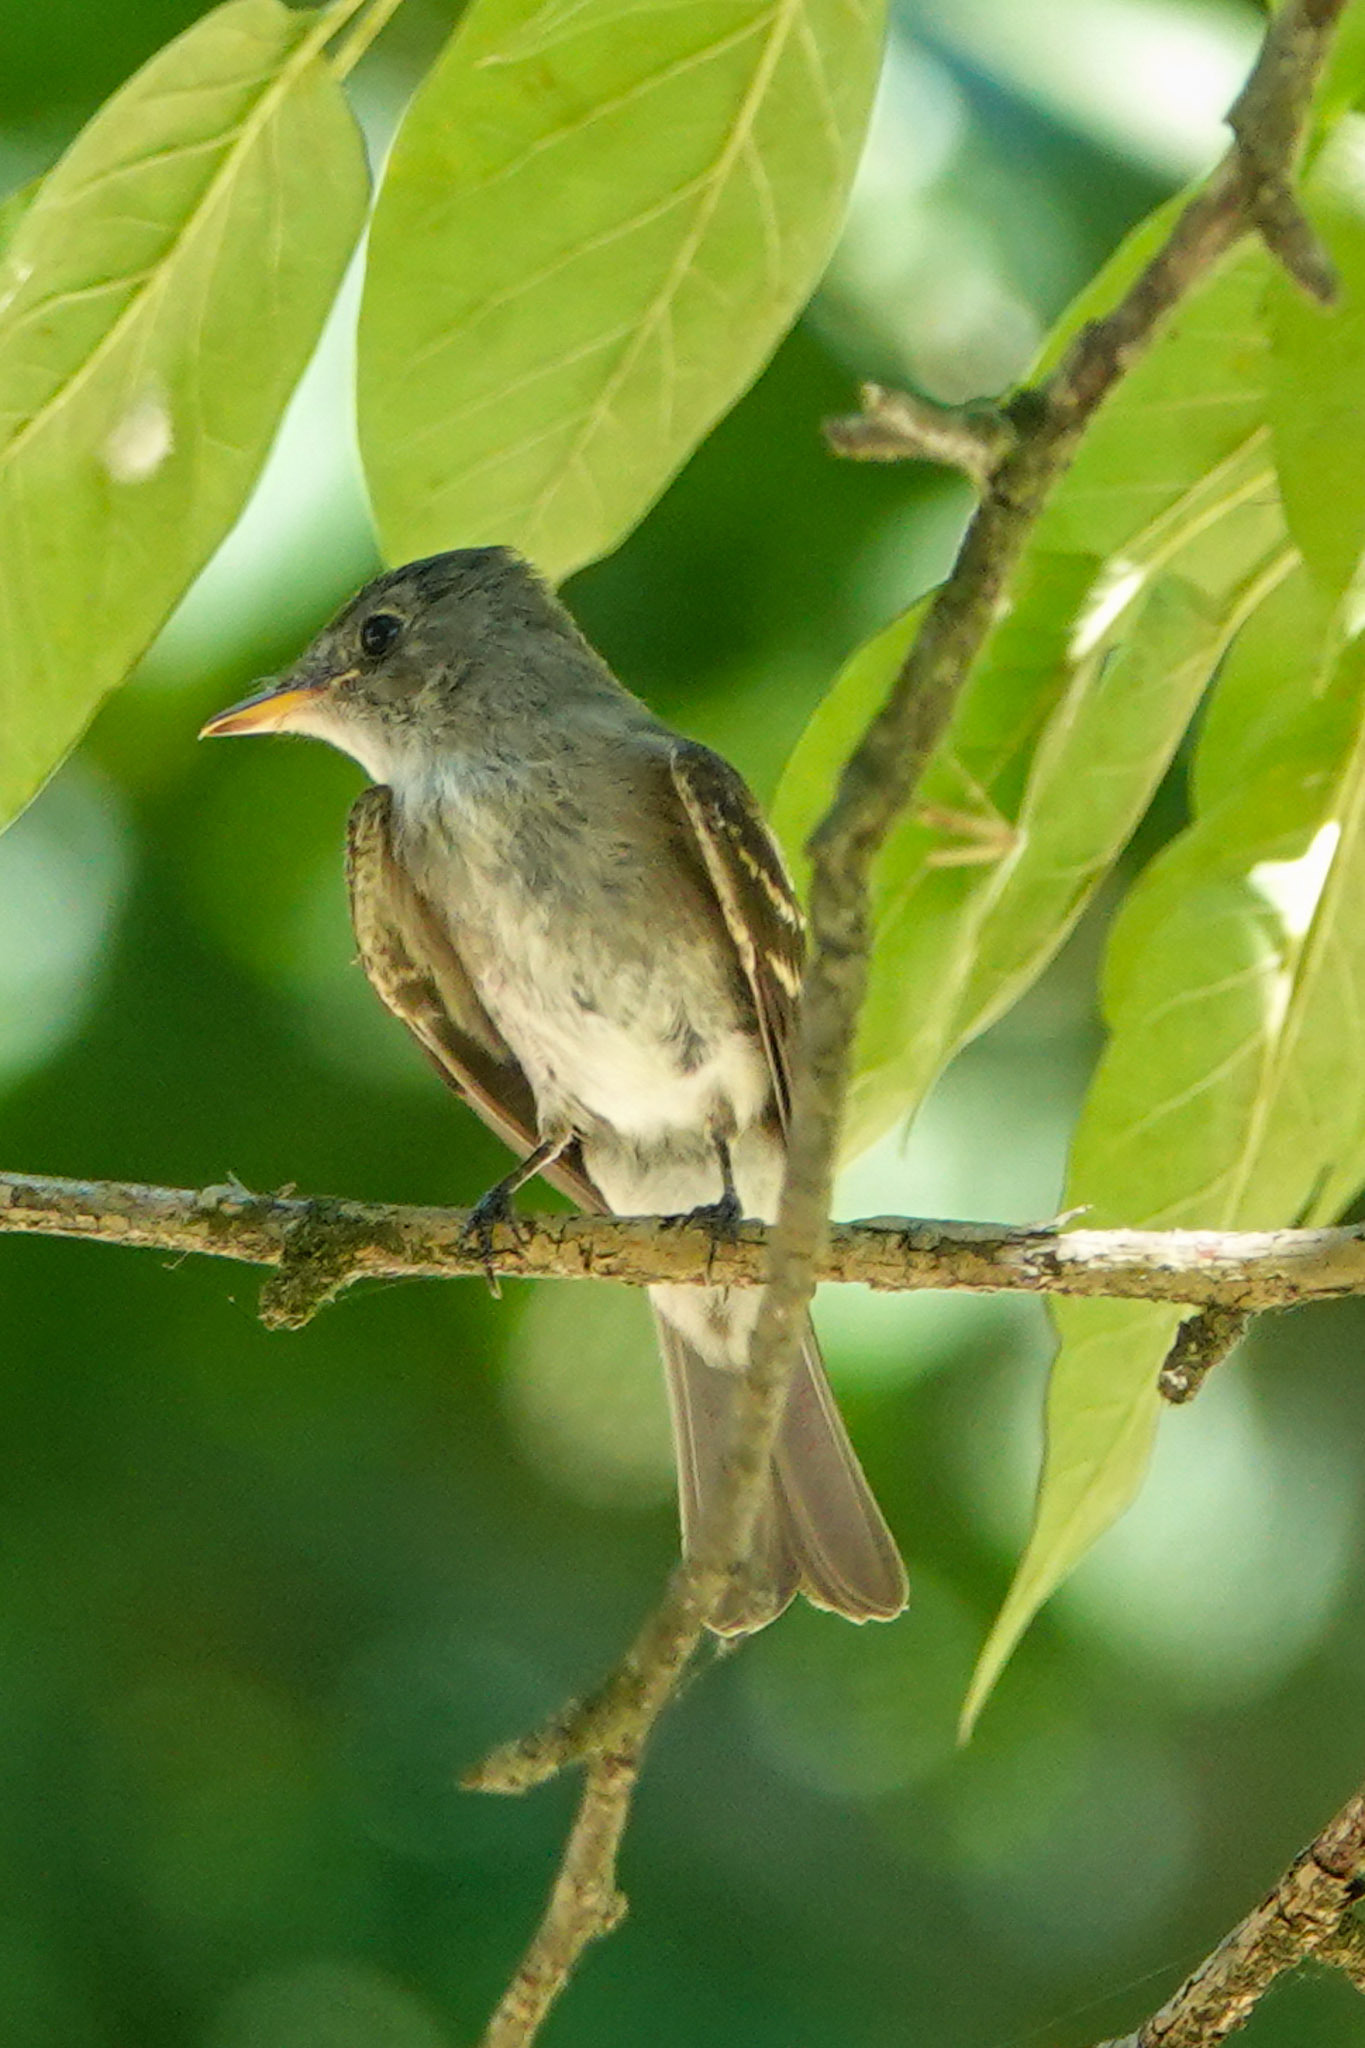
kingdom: Animalia
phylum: Chordata
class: Aves
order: Passeriformes
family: Tyrannidae
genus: Contopus
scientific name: Contopus virens
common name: Eastern wood-pewee
